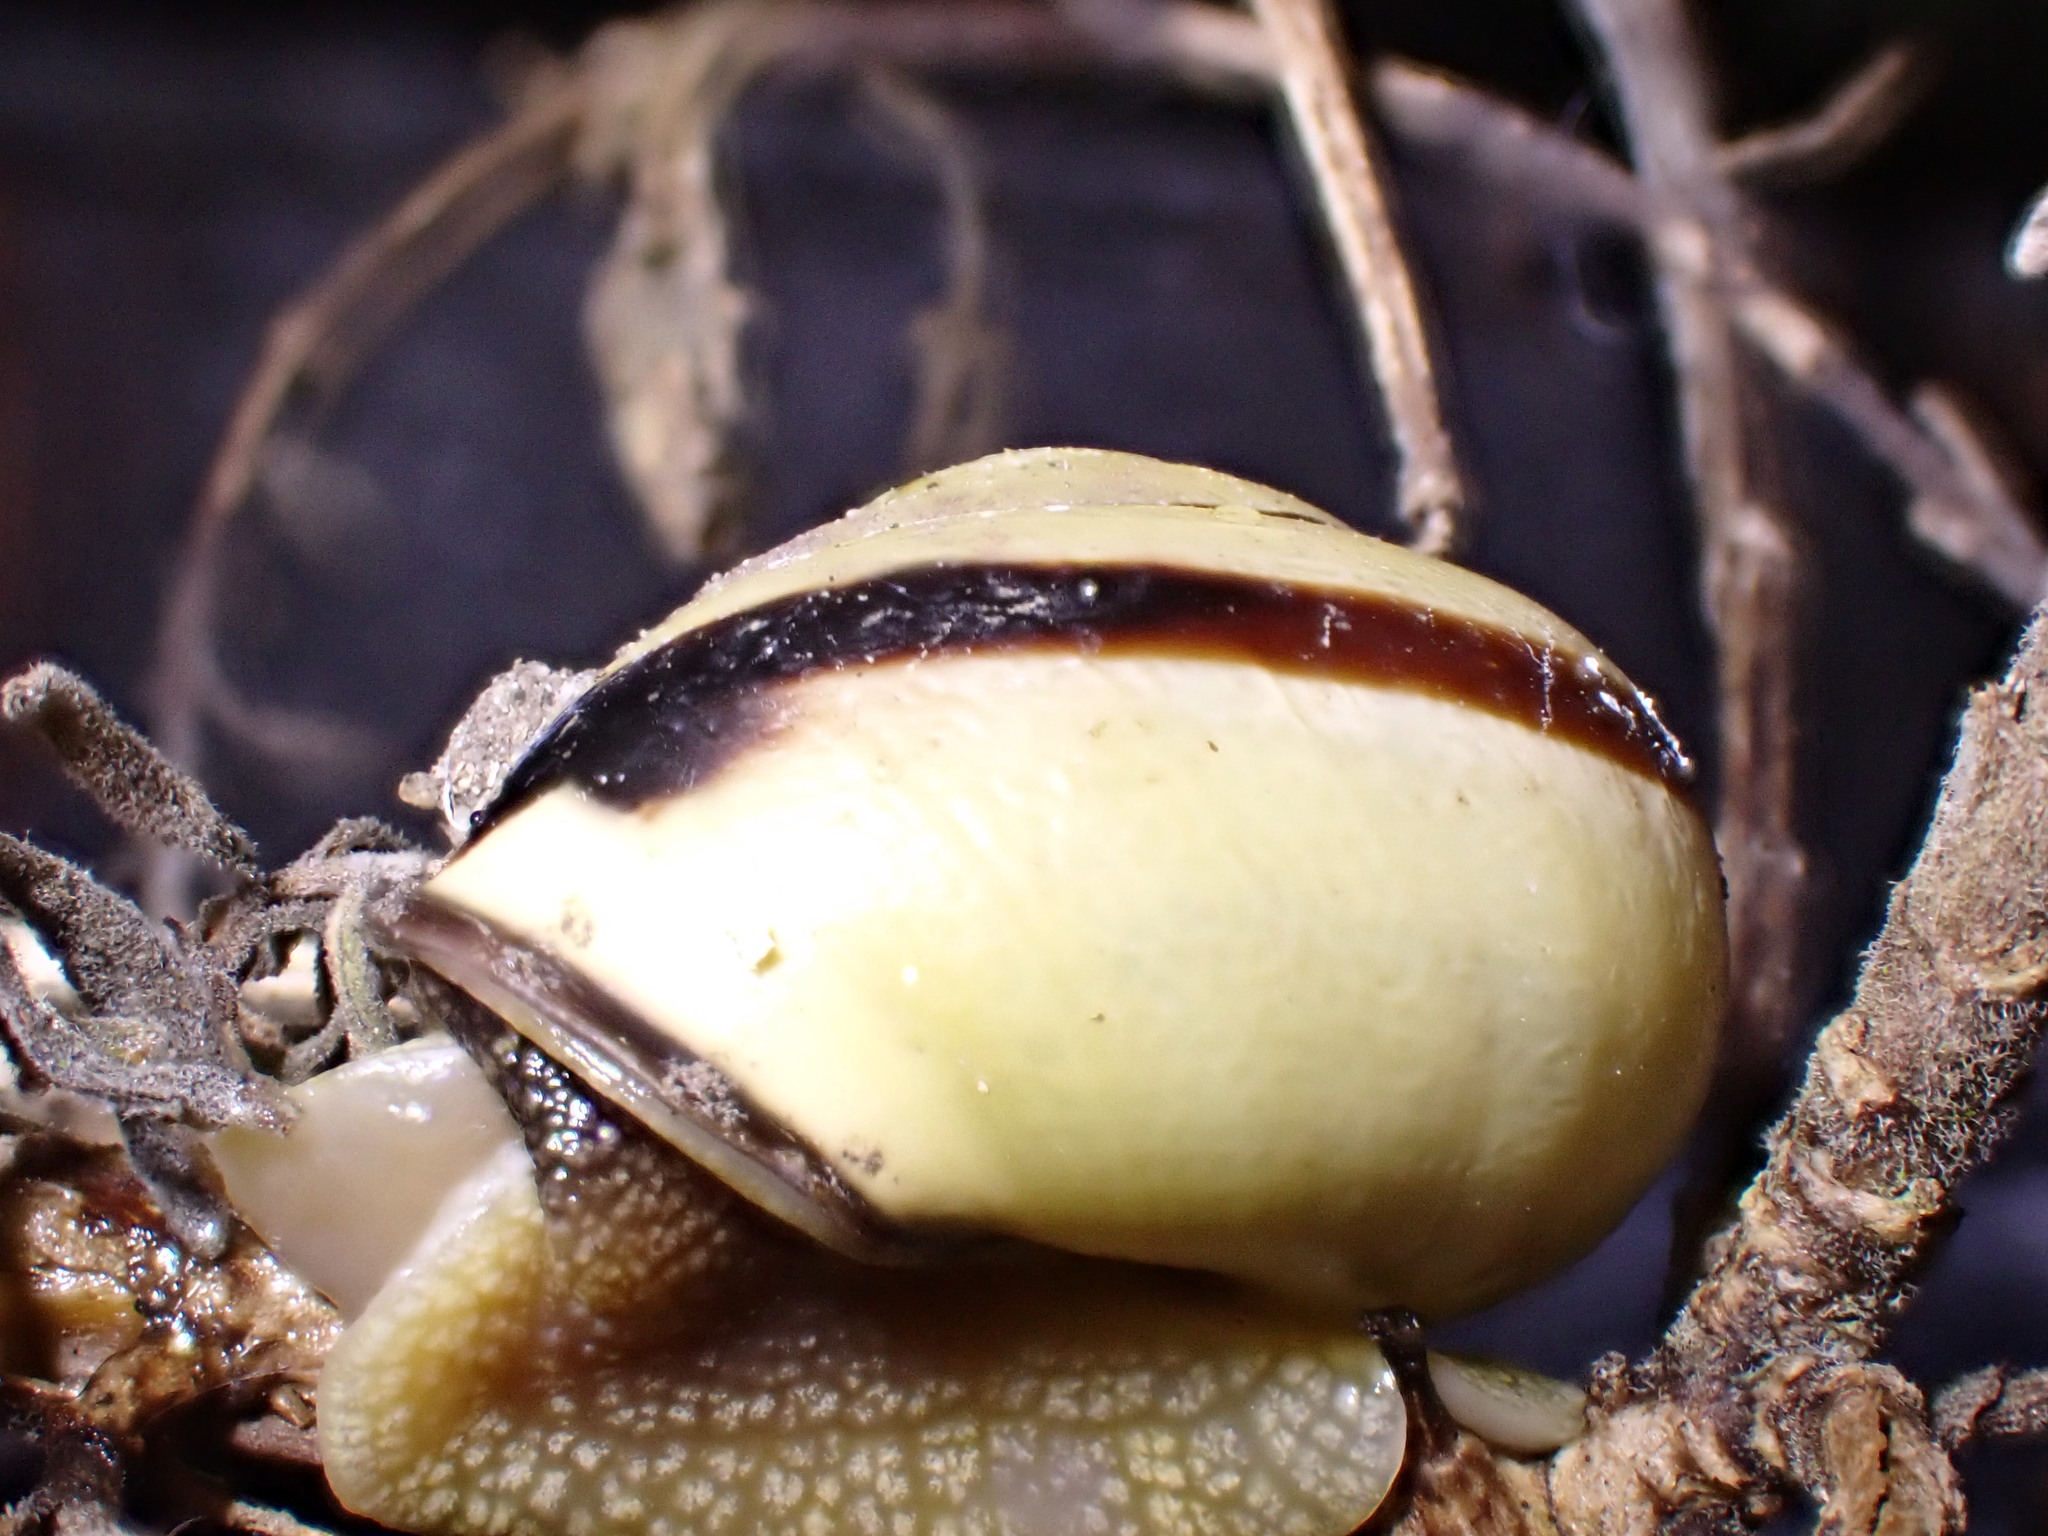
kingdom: Animalia
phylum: Mollusca
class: Gastropoda
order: Stylommatophora
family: Helicidae
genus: Cepaea
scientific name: Cepaea nemoralis
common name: Grovesnail
